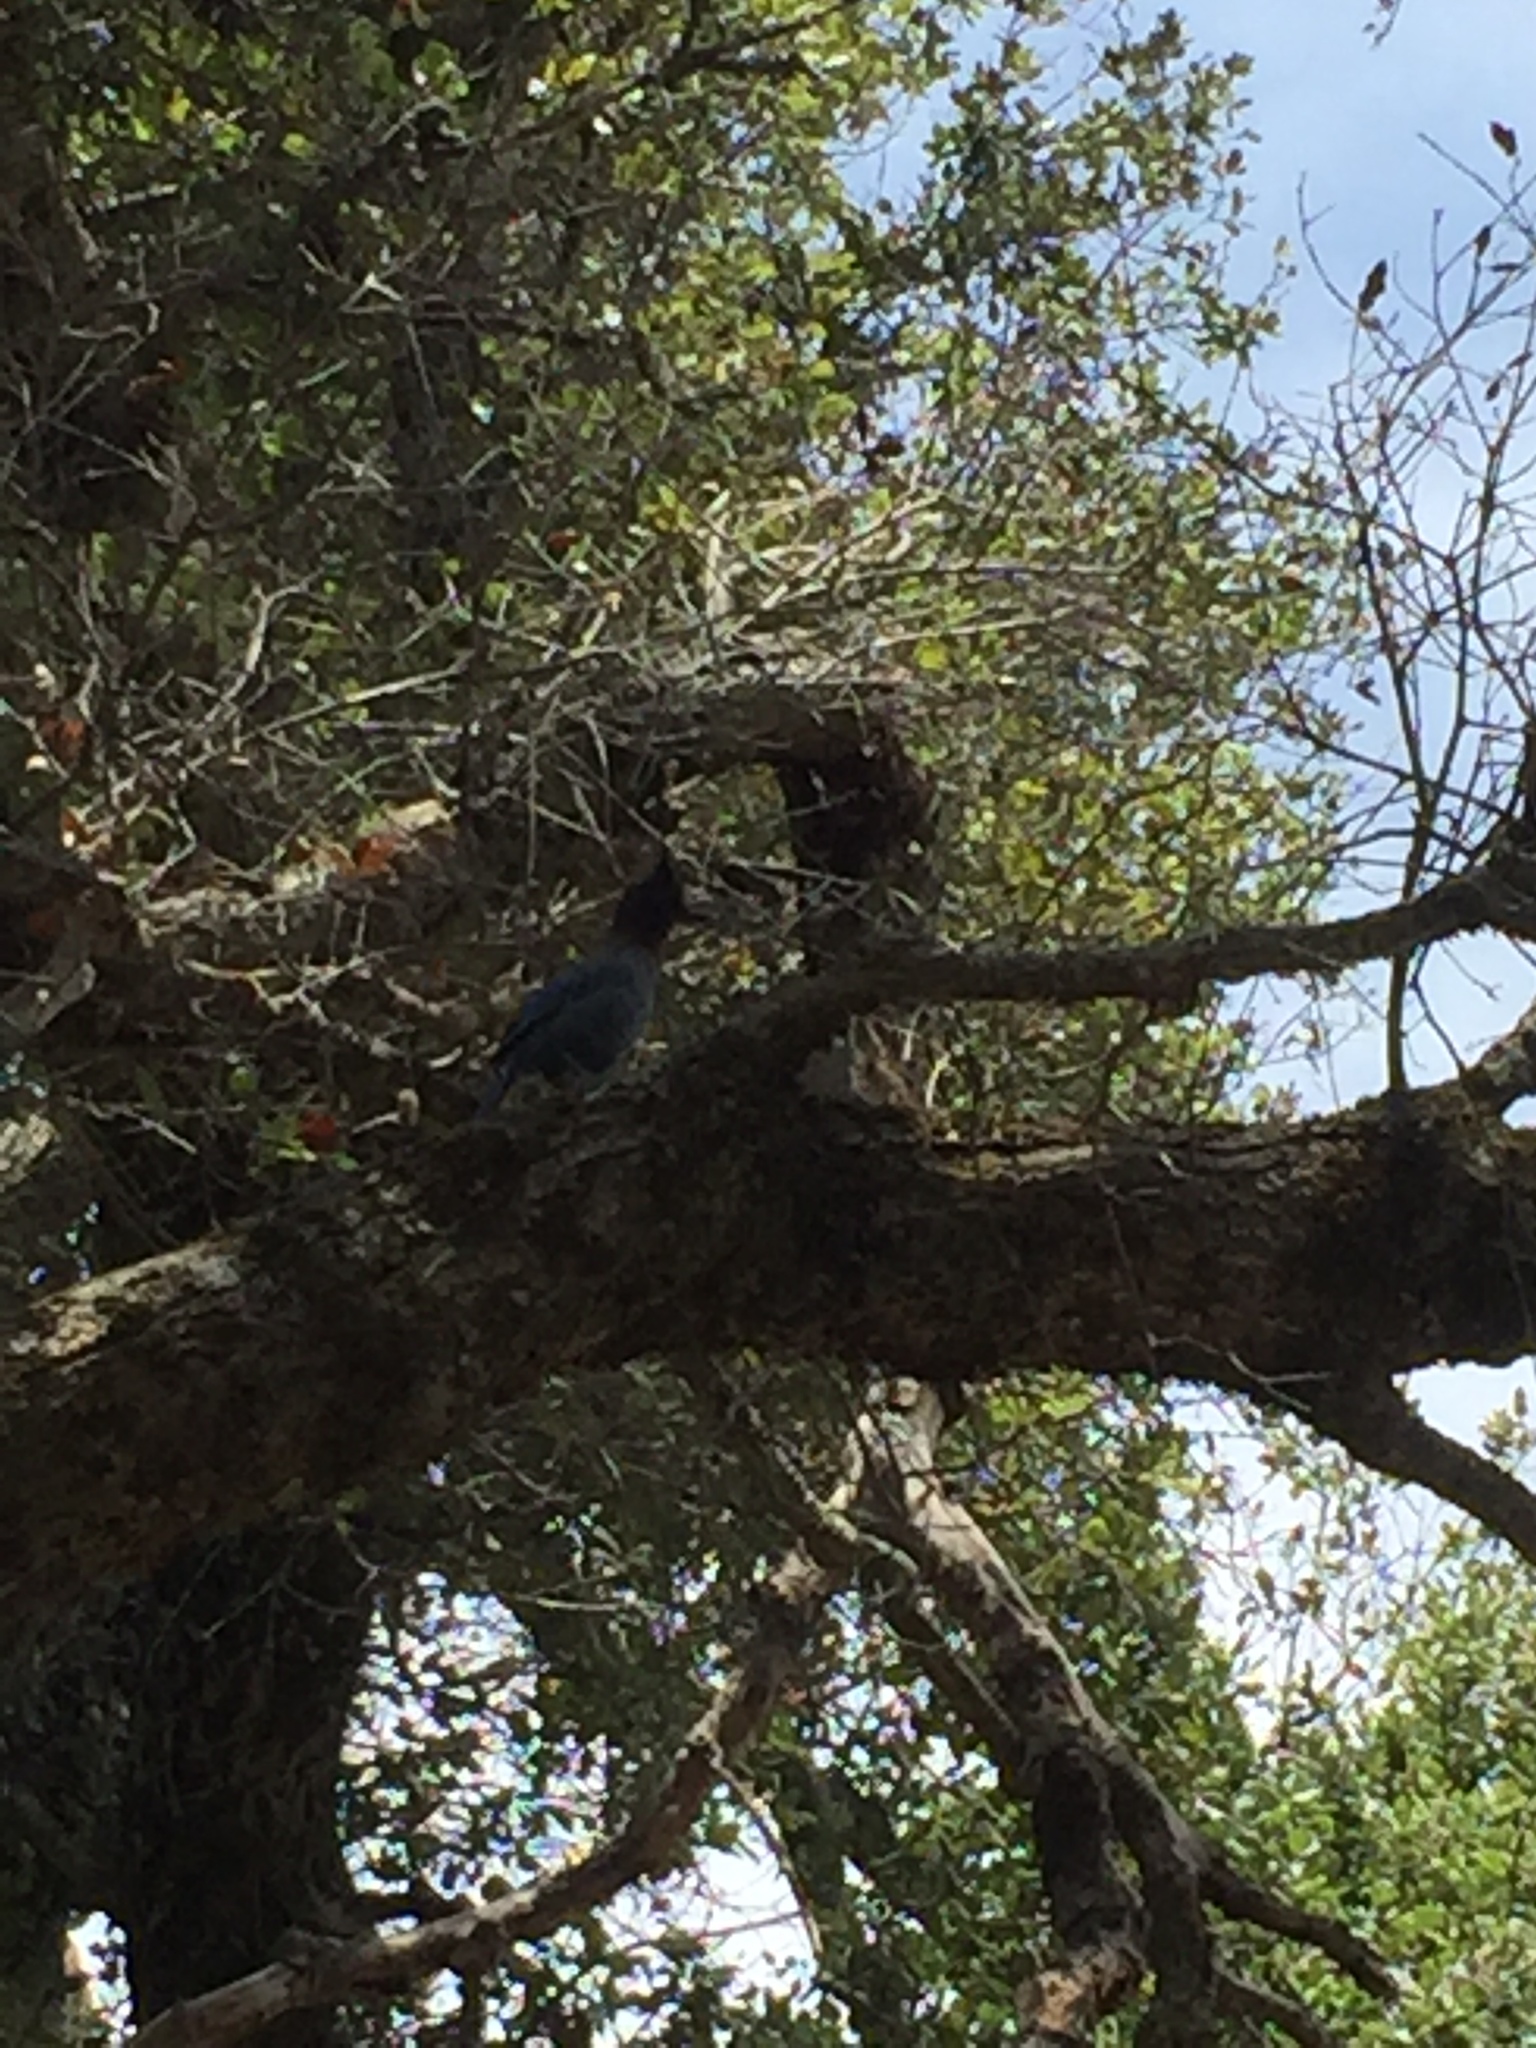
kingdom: Animalia
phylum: Chordata
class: Aves
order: Passeriformes
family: Corvidae
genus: Cyanocitta
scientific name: Cyanocitta stelleri
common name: Steller's jay
